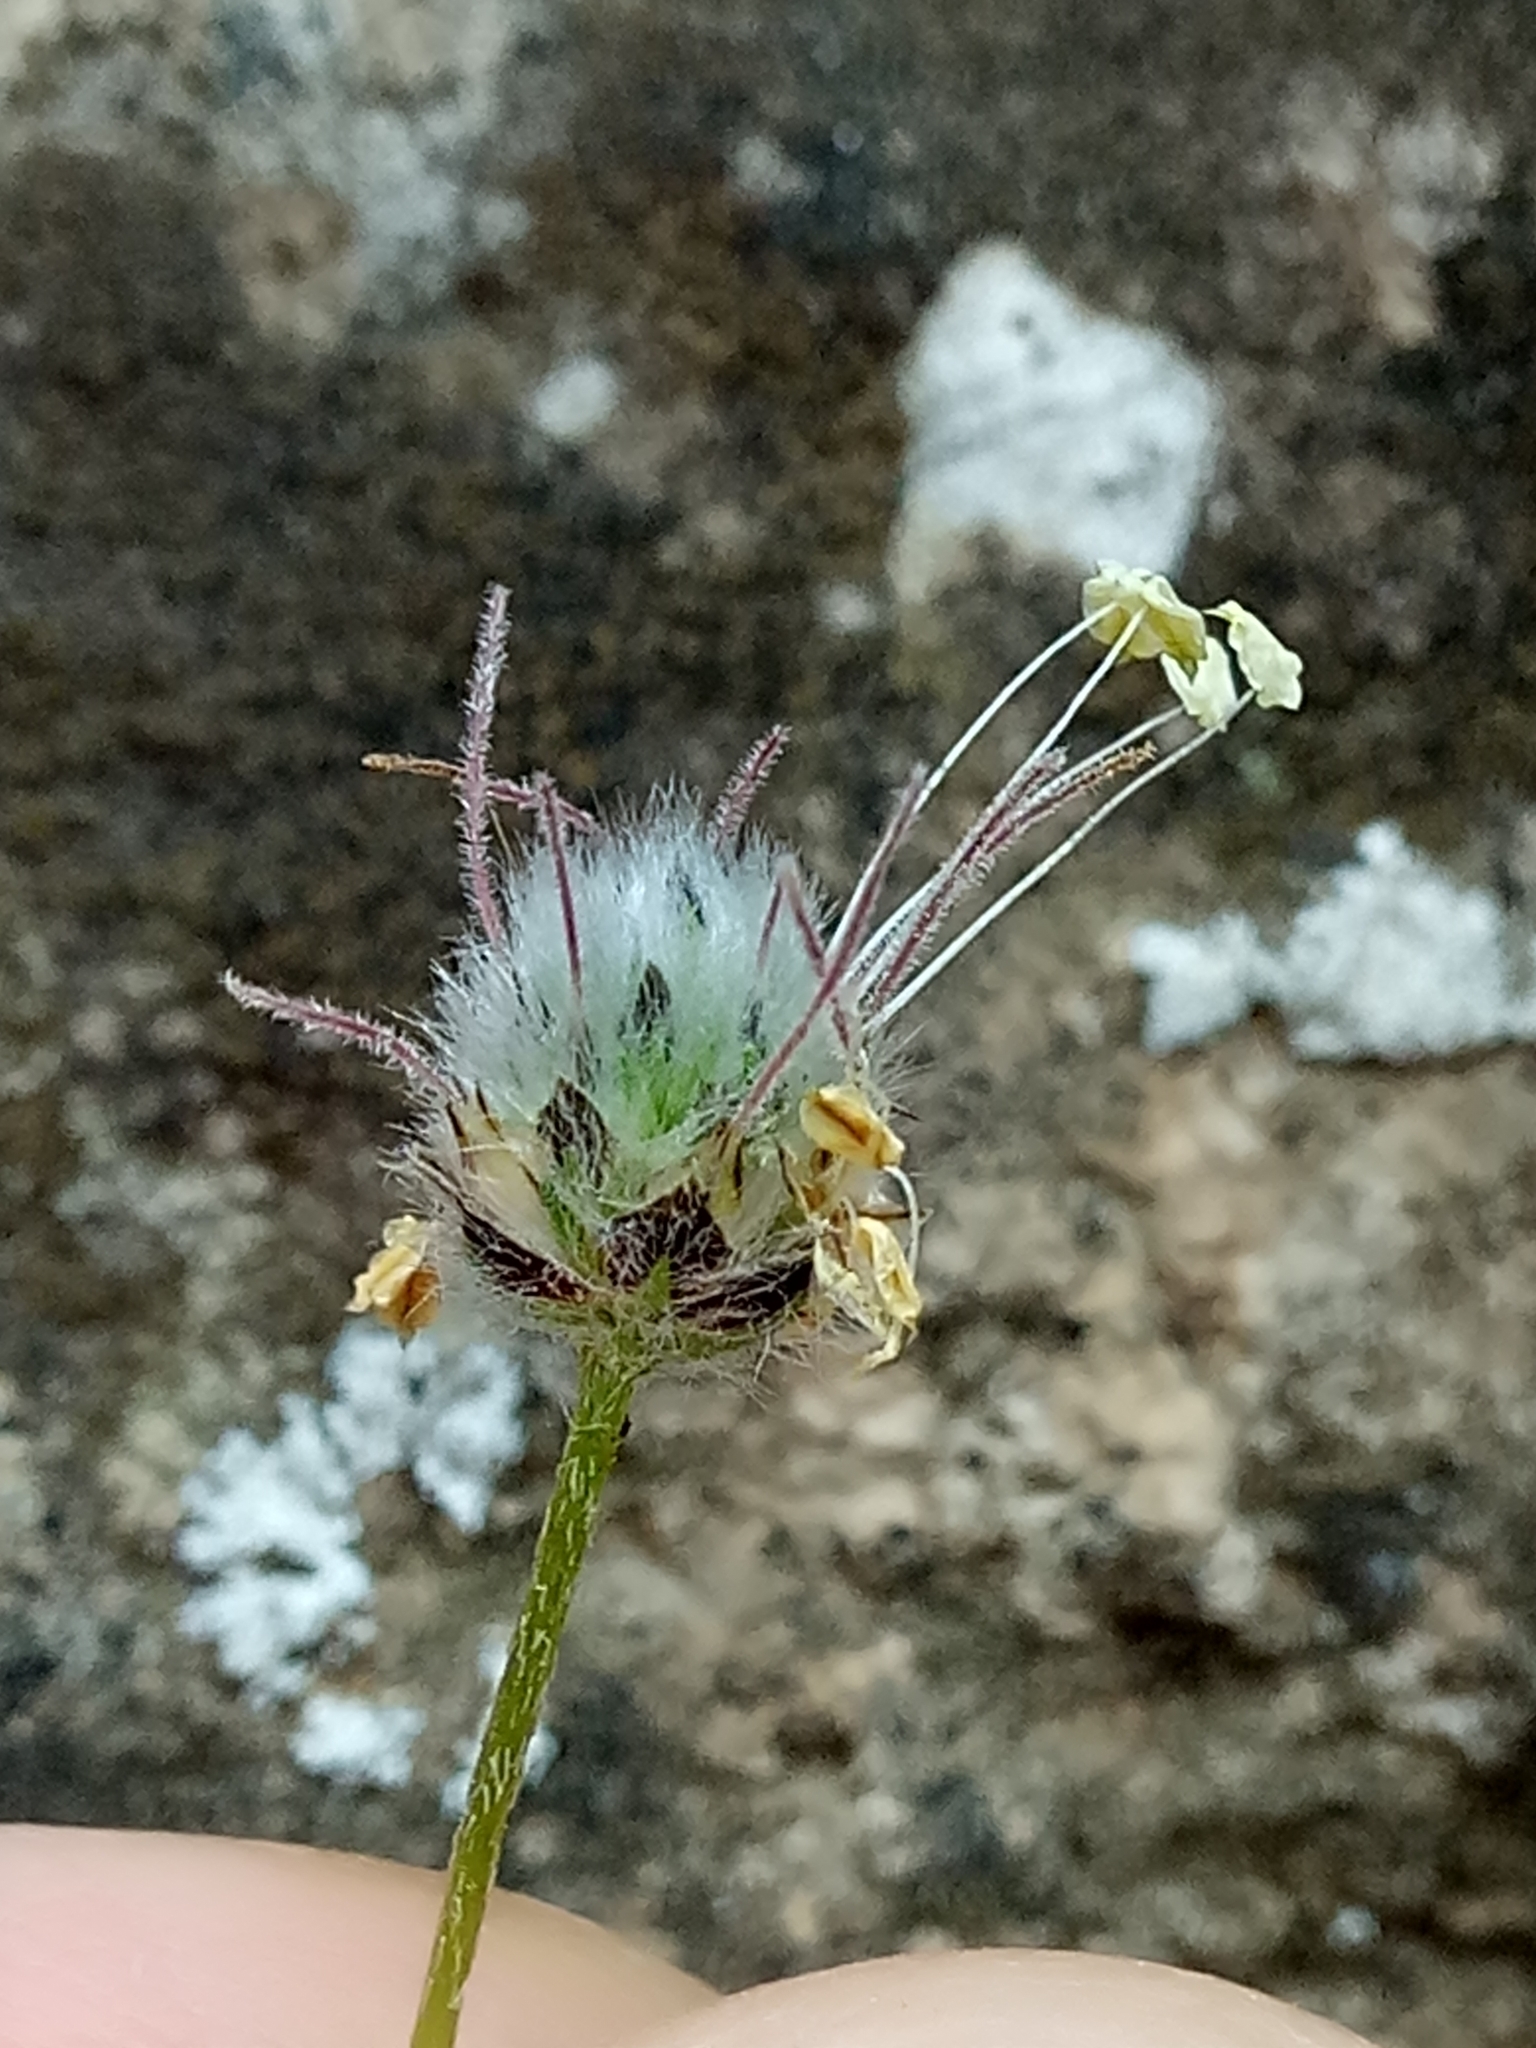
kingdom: Plantae
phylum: Tracheophyta
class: Magnoliopsida
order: Lamiales
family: Plantaginaceae
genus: Plantago
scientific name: Plantago lagopus
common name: Hare-foot plantain
